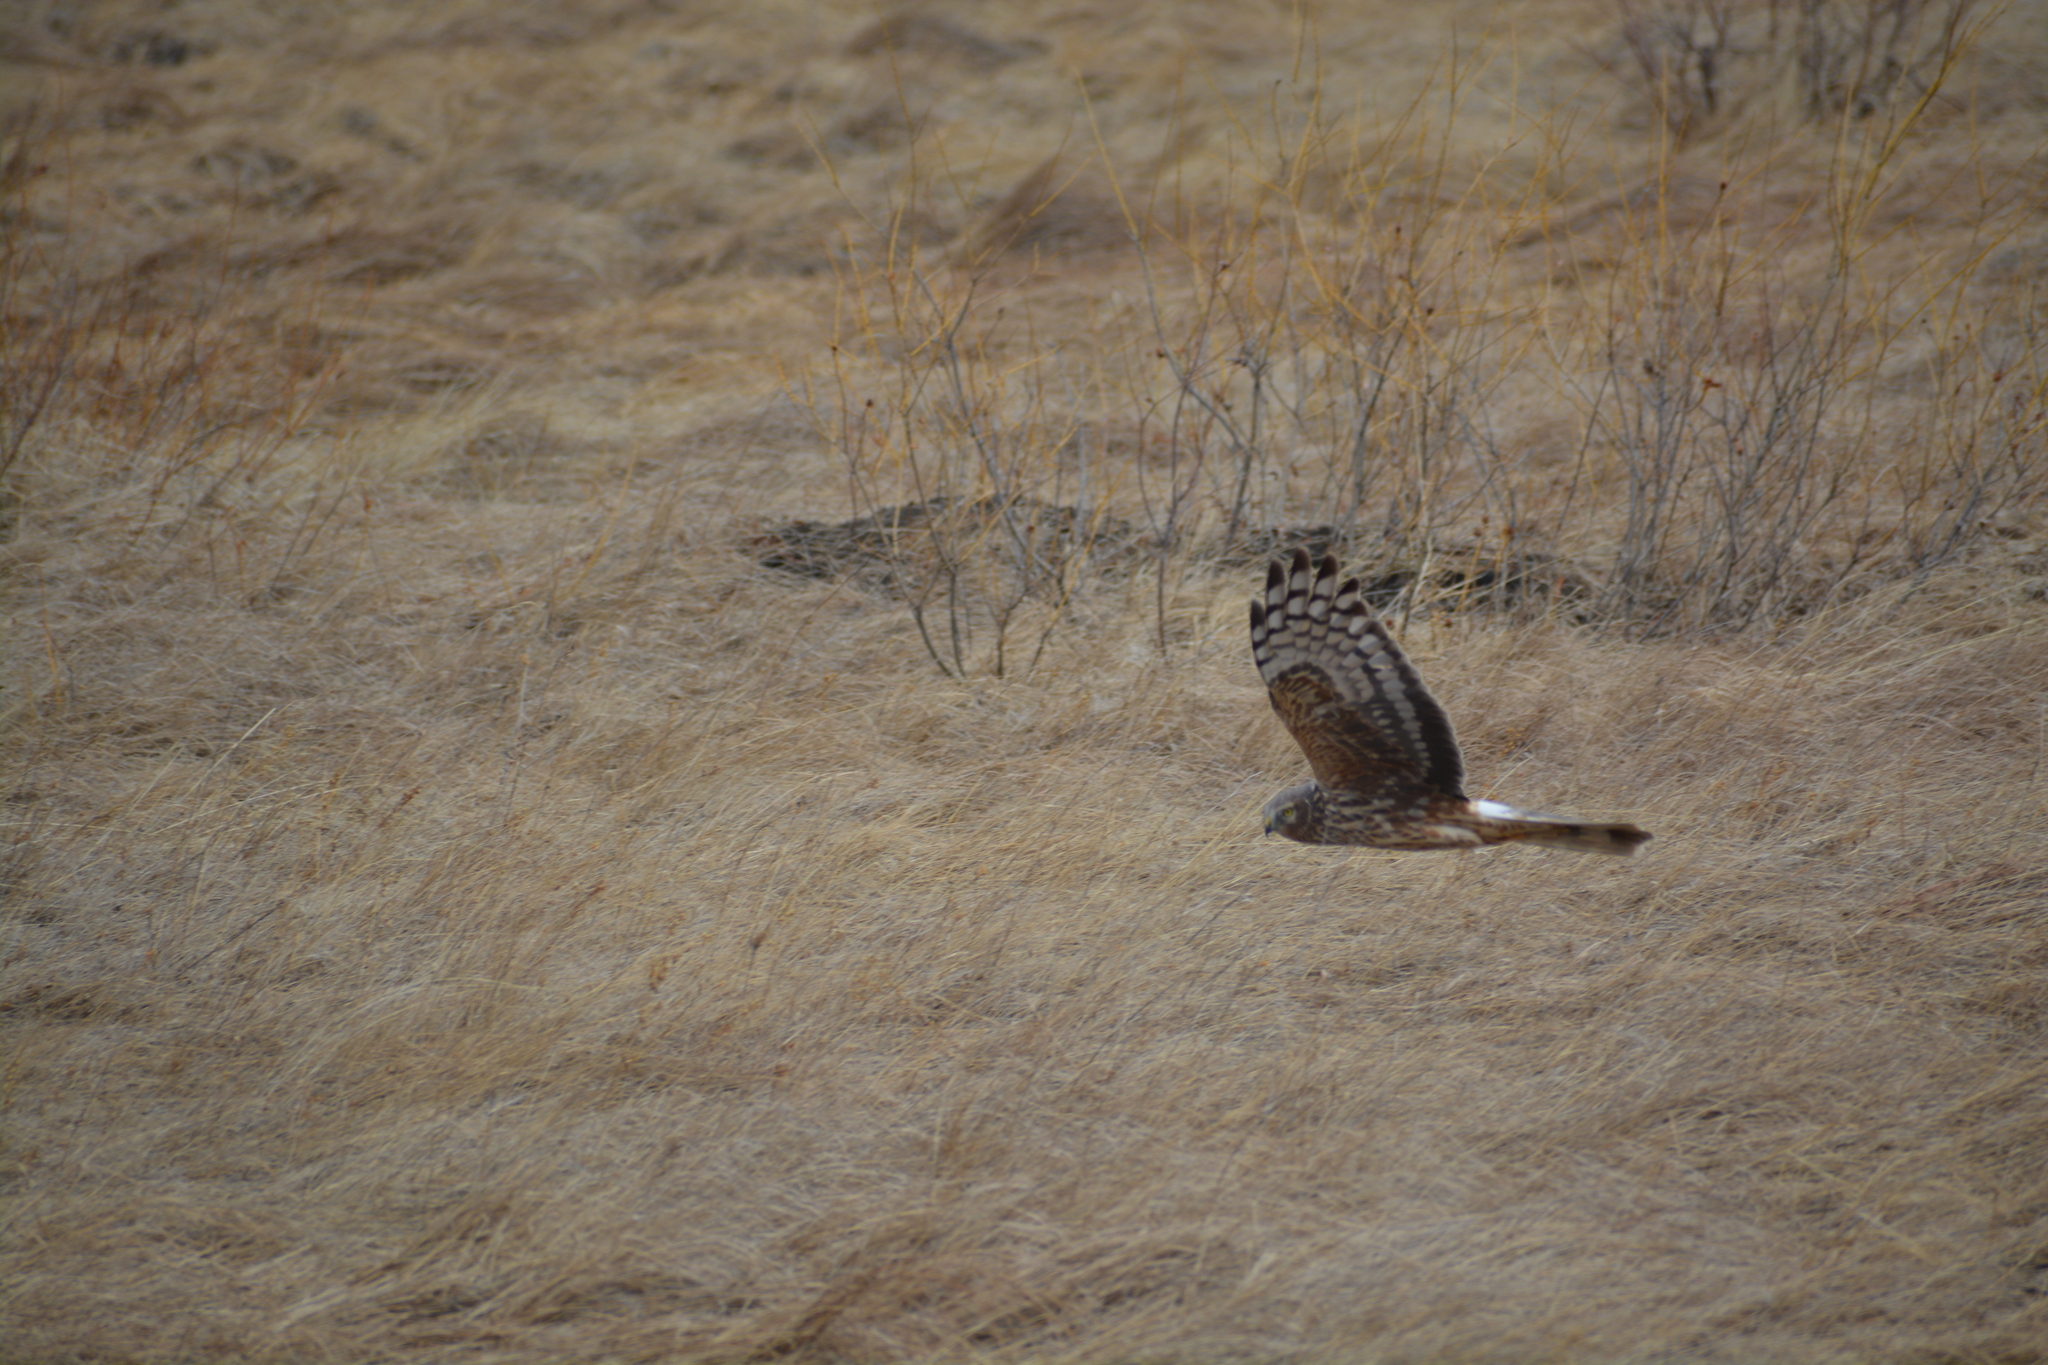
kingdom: Animalia
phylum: Chordata
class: Aves
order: Accipitriformes
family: Accipitridae
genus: Circus
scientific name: Circus cyaneus
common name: Hen harrier
